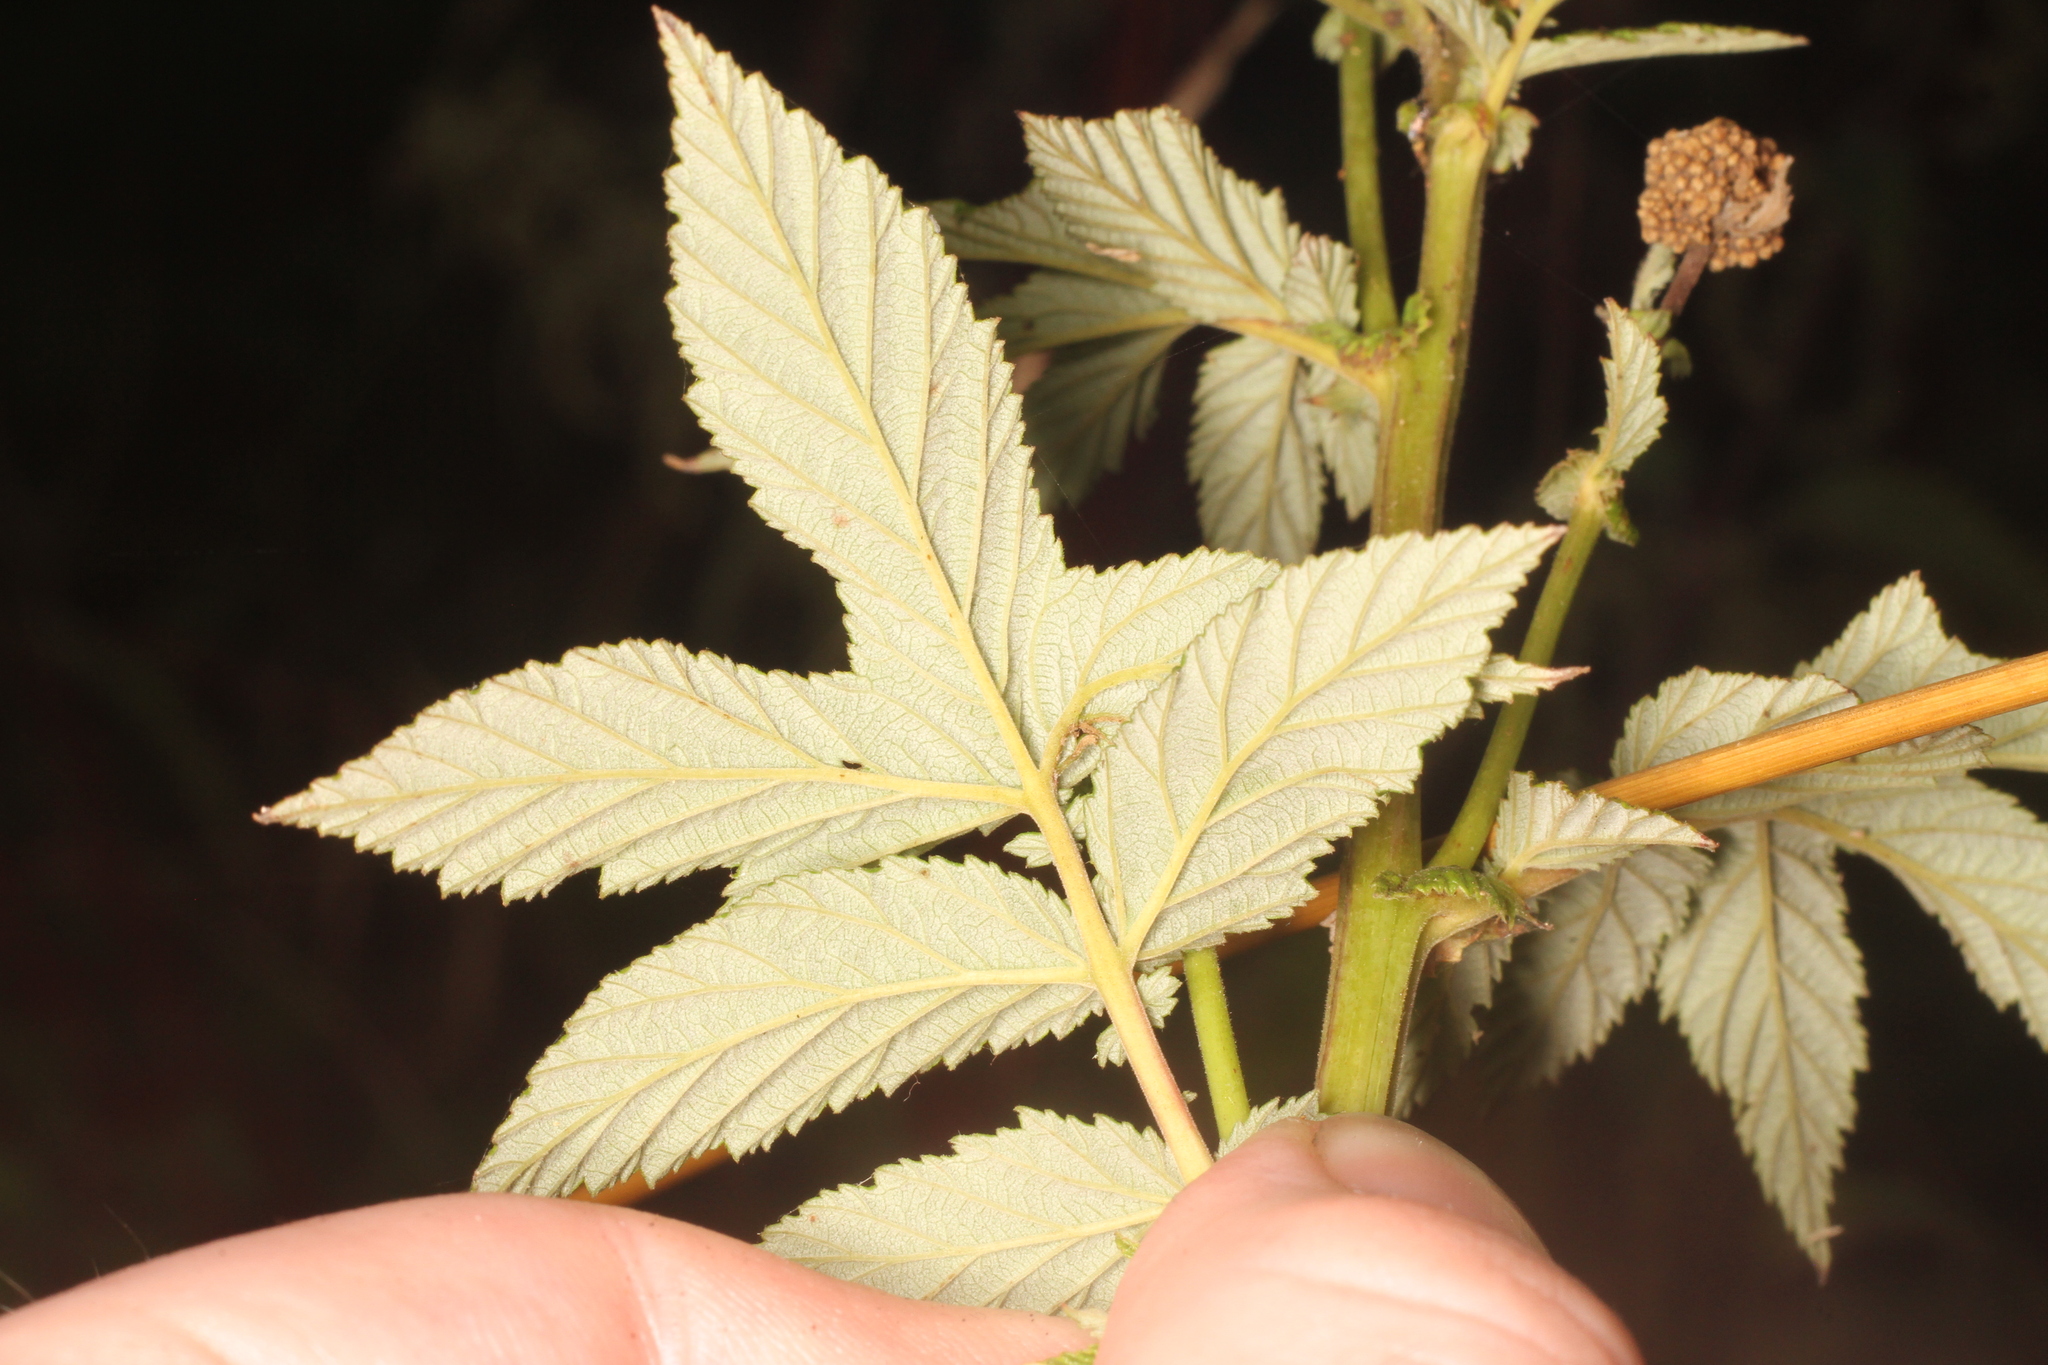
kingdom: Plantae
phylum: Tracheophyta
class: Magnoliopsida
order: Rosales
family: Rosaceae
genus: Filipendula
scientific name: Filipendula ulmaria
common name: Meadowsweet
